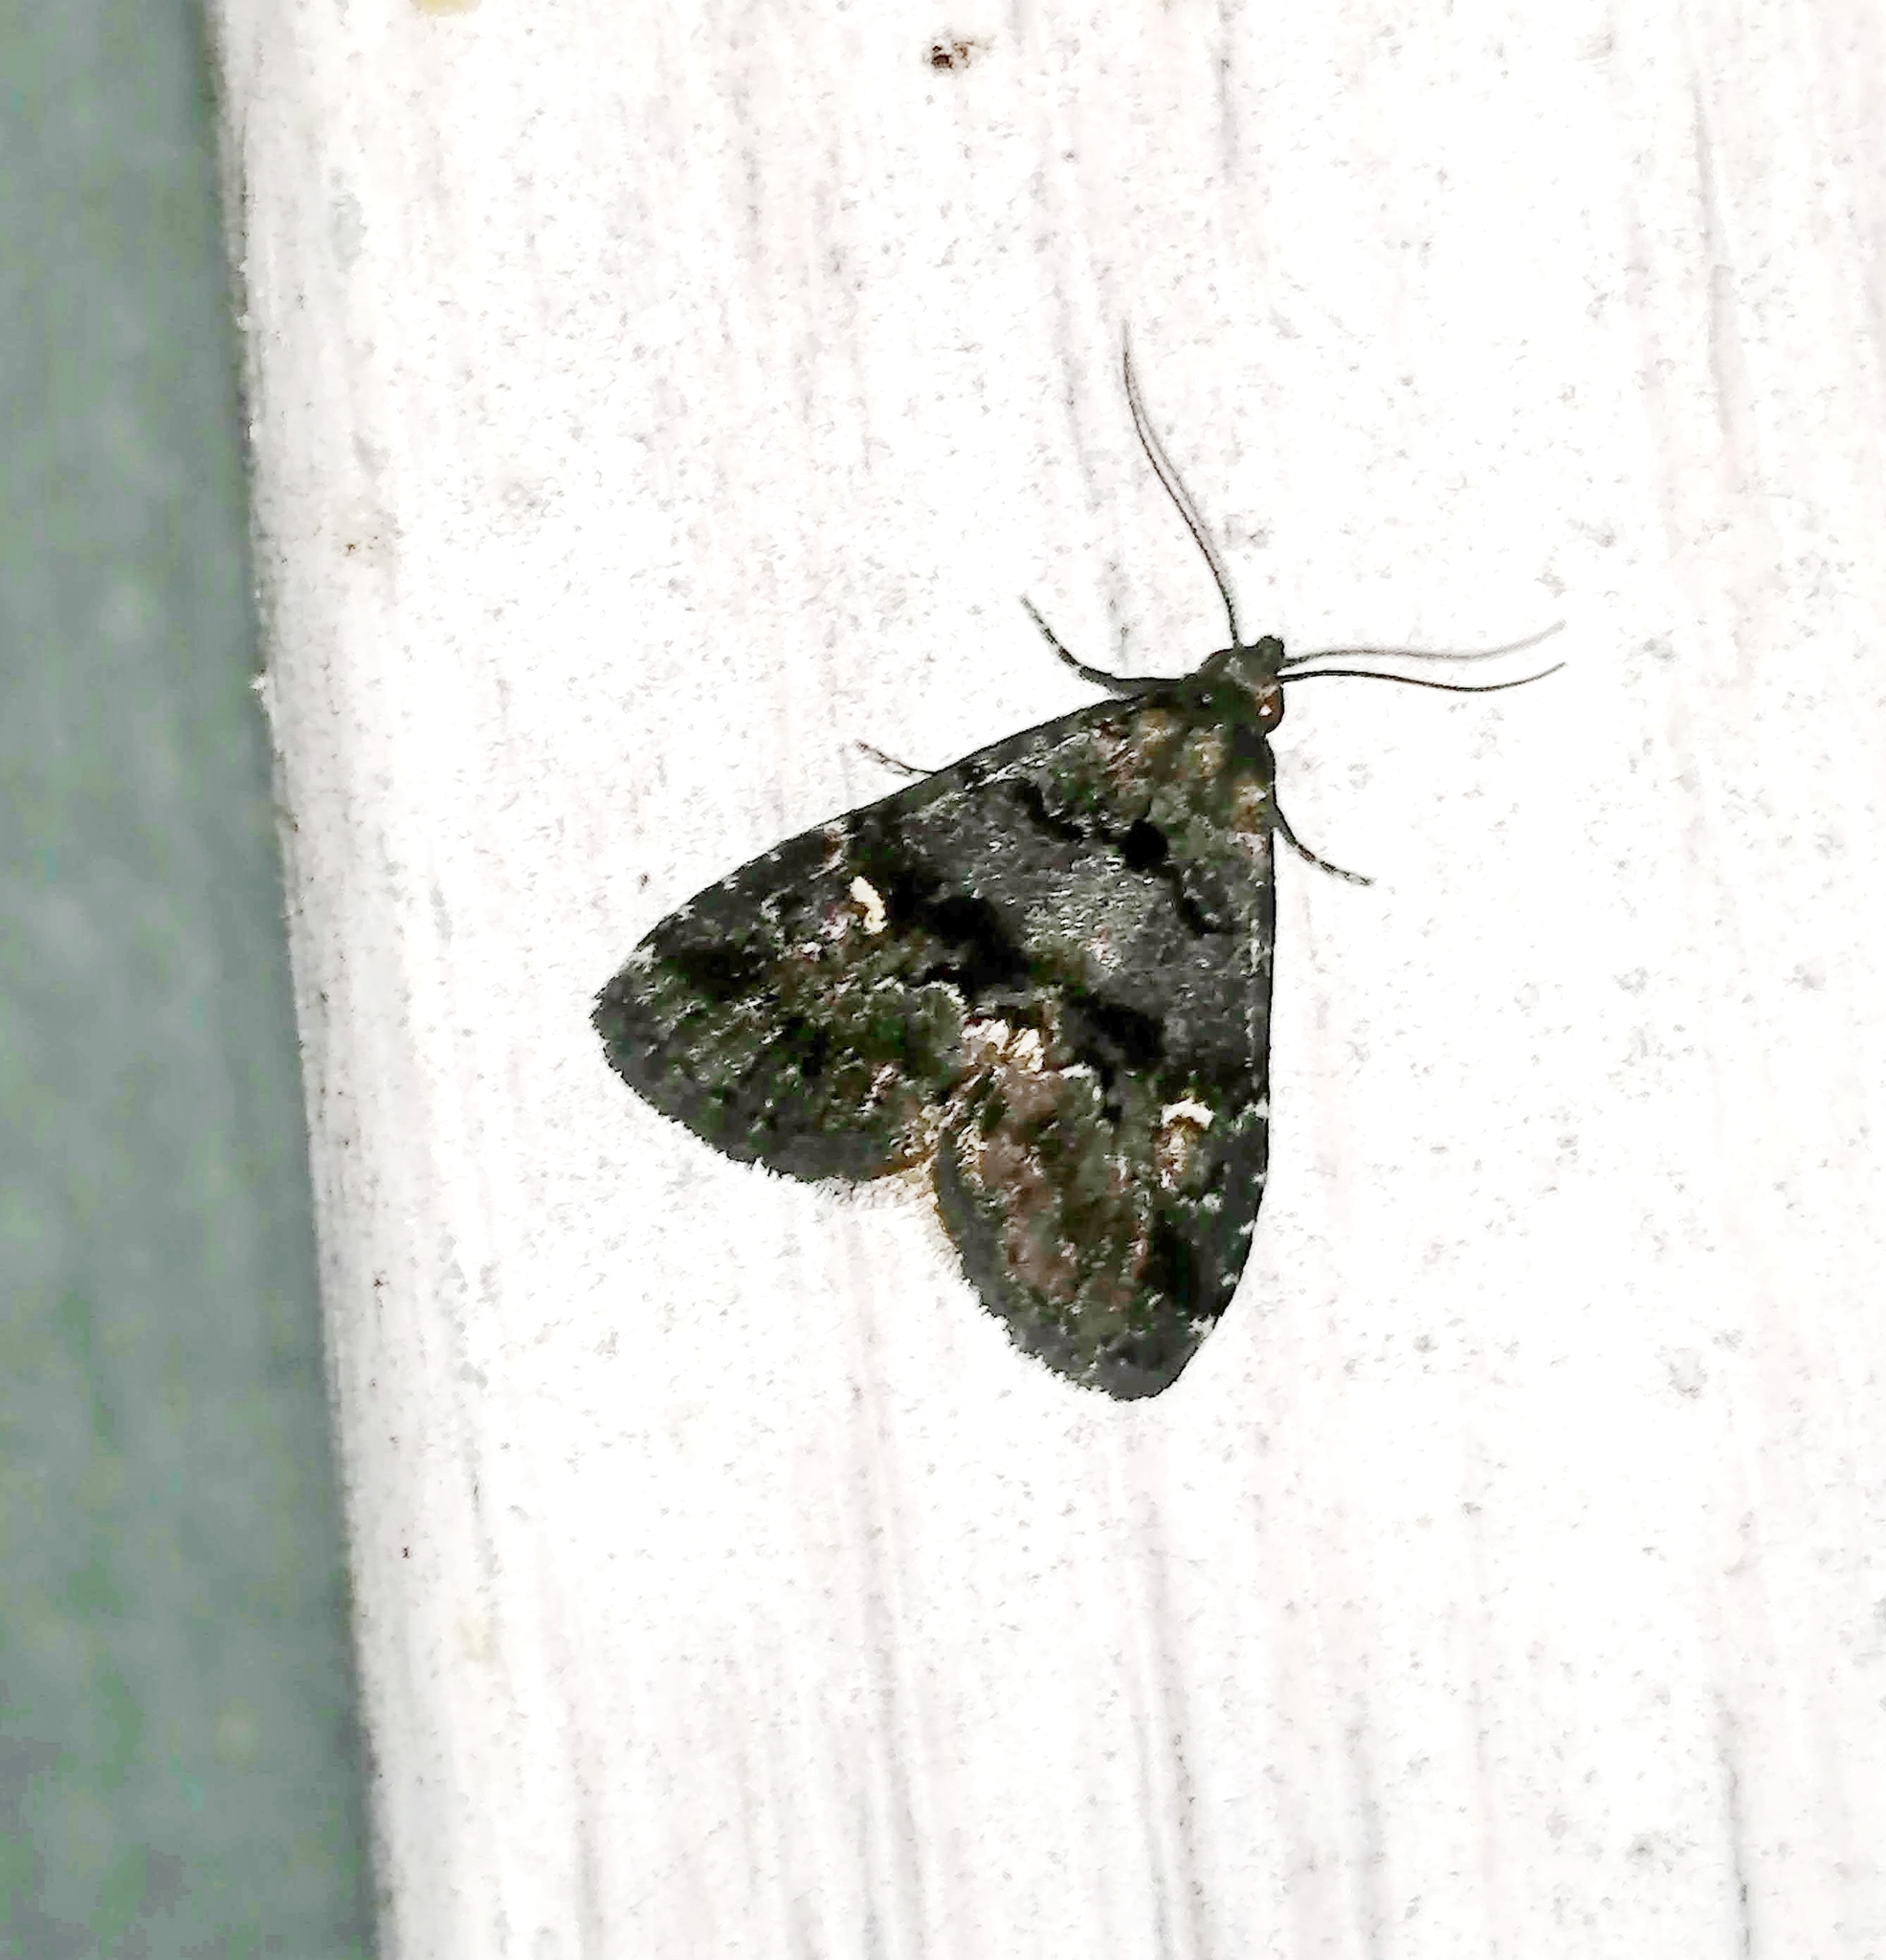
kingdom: Animalia
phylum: Arthropoda
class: Insecta
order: Lepidoptera
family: Erebidae
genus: Dyspyralis
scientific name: Dyspyralis nigellus
